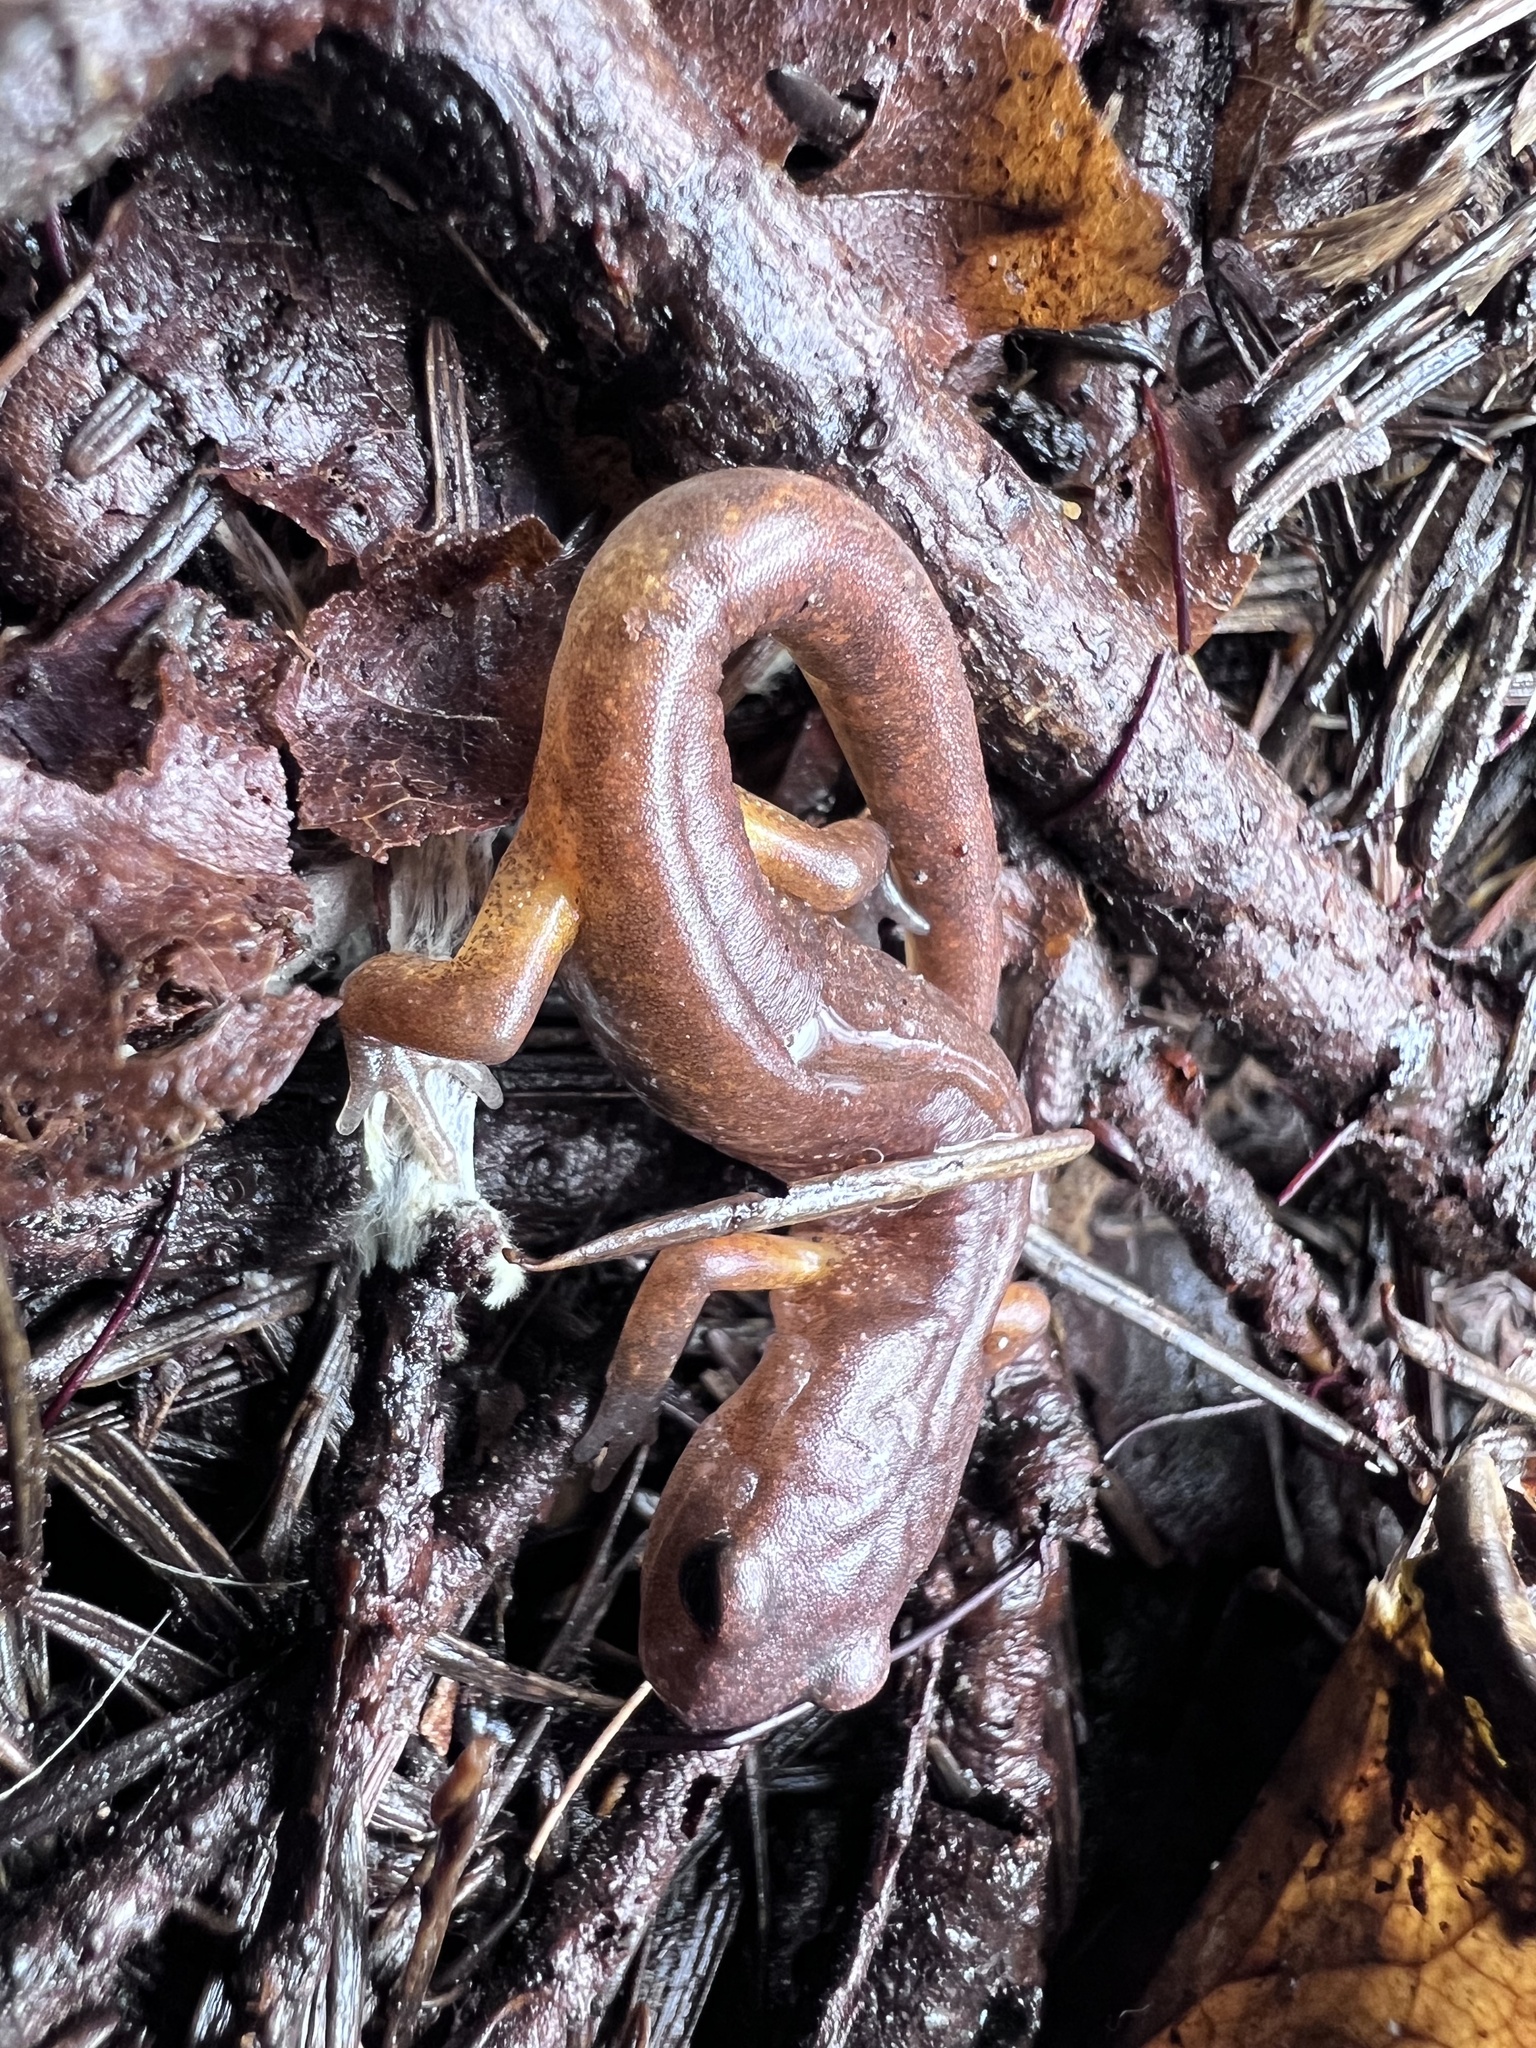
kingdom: Animalia
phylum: Chordata
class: Amphibia
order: Caudata
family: Plethodontidae
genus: Ensatina
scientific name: Ensatina eschscholtzii
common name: Ensatina
